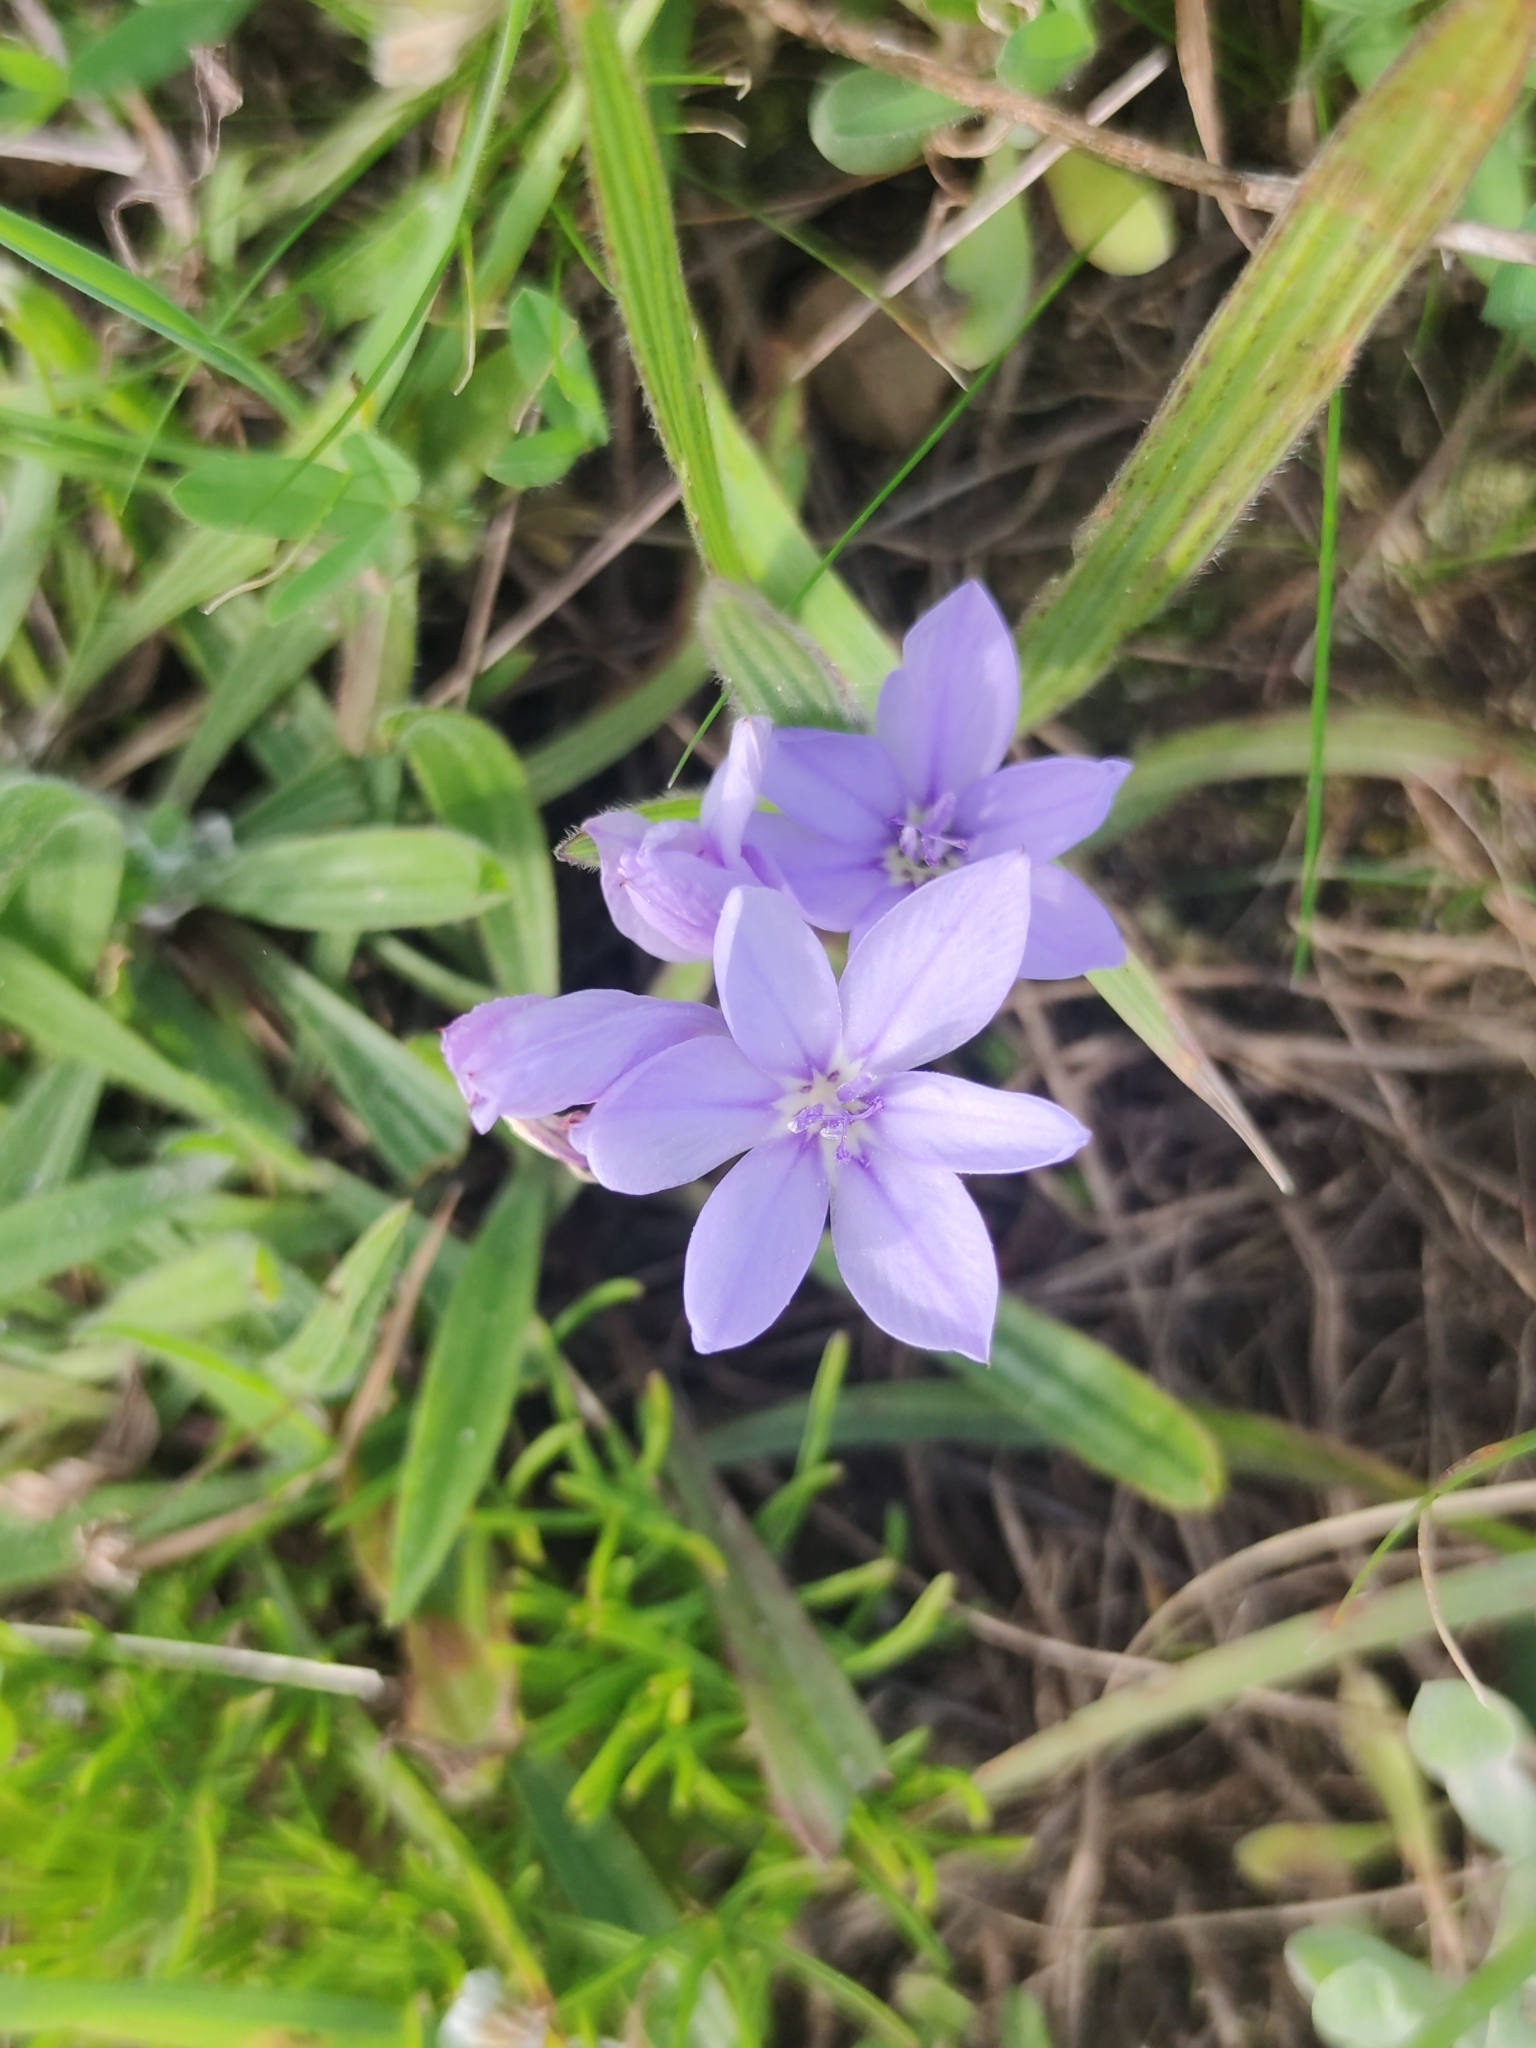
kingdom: Plantae
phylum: Tracheophyta
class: Liliopsida
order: Asparagales
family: Iridaceae
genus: Babiana
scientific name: Babiana villosula
